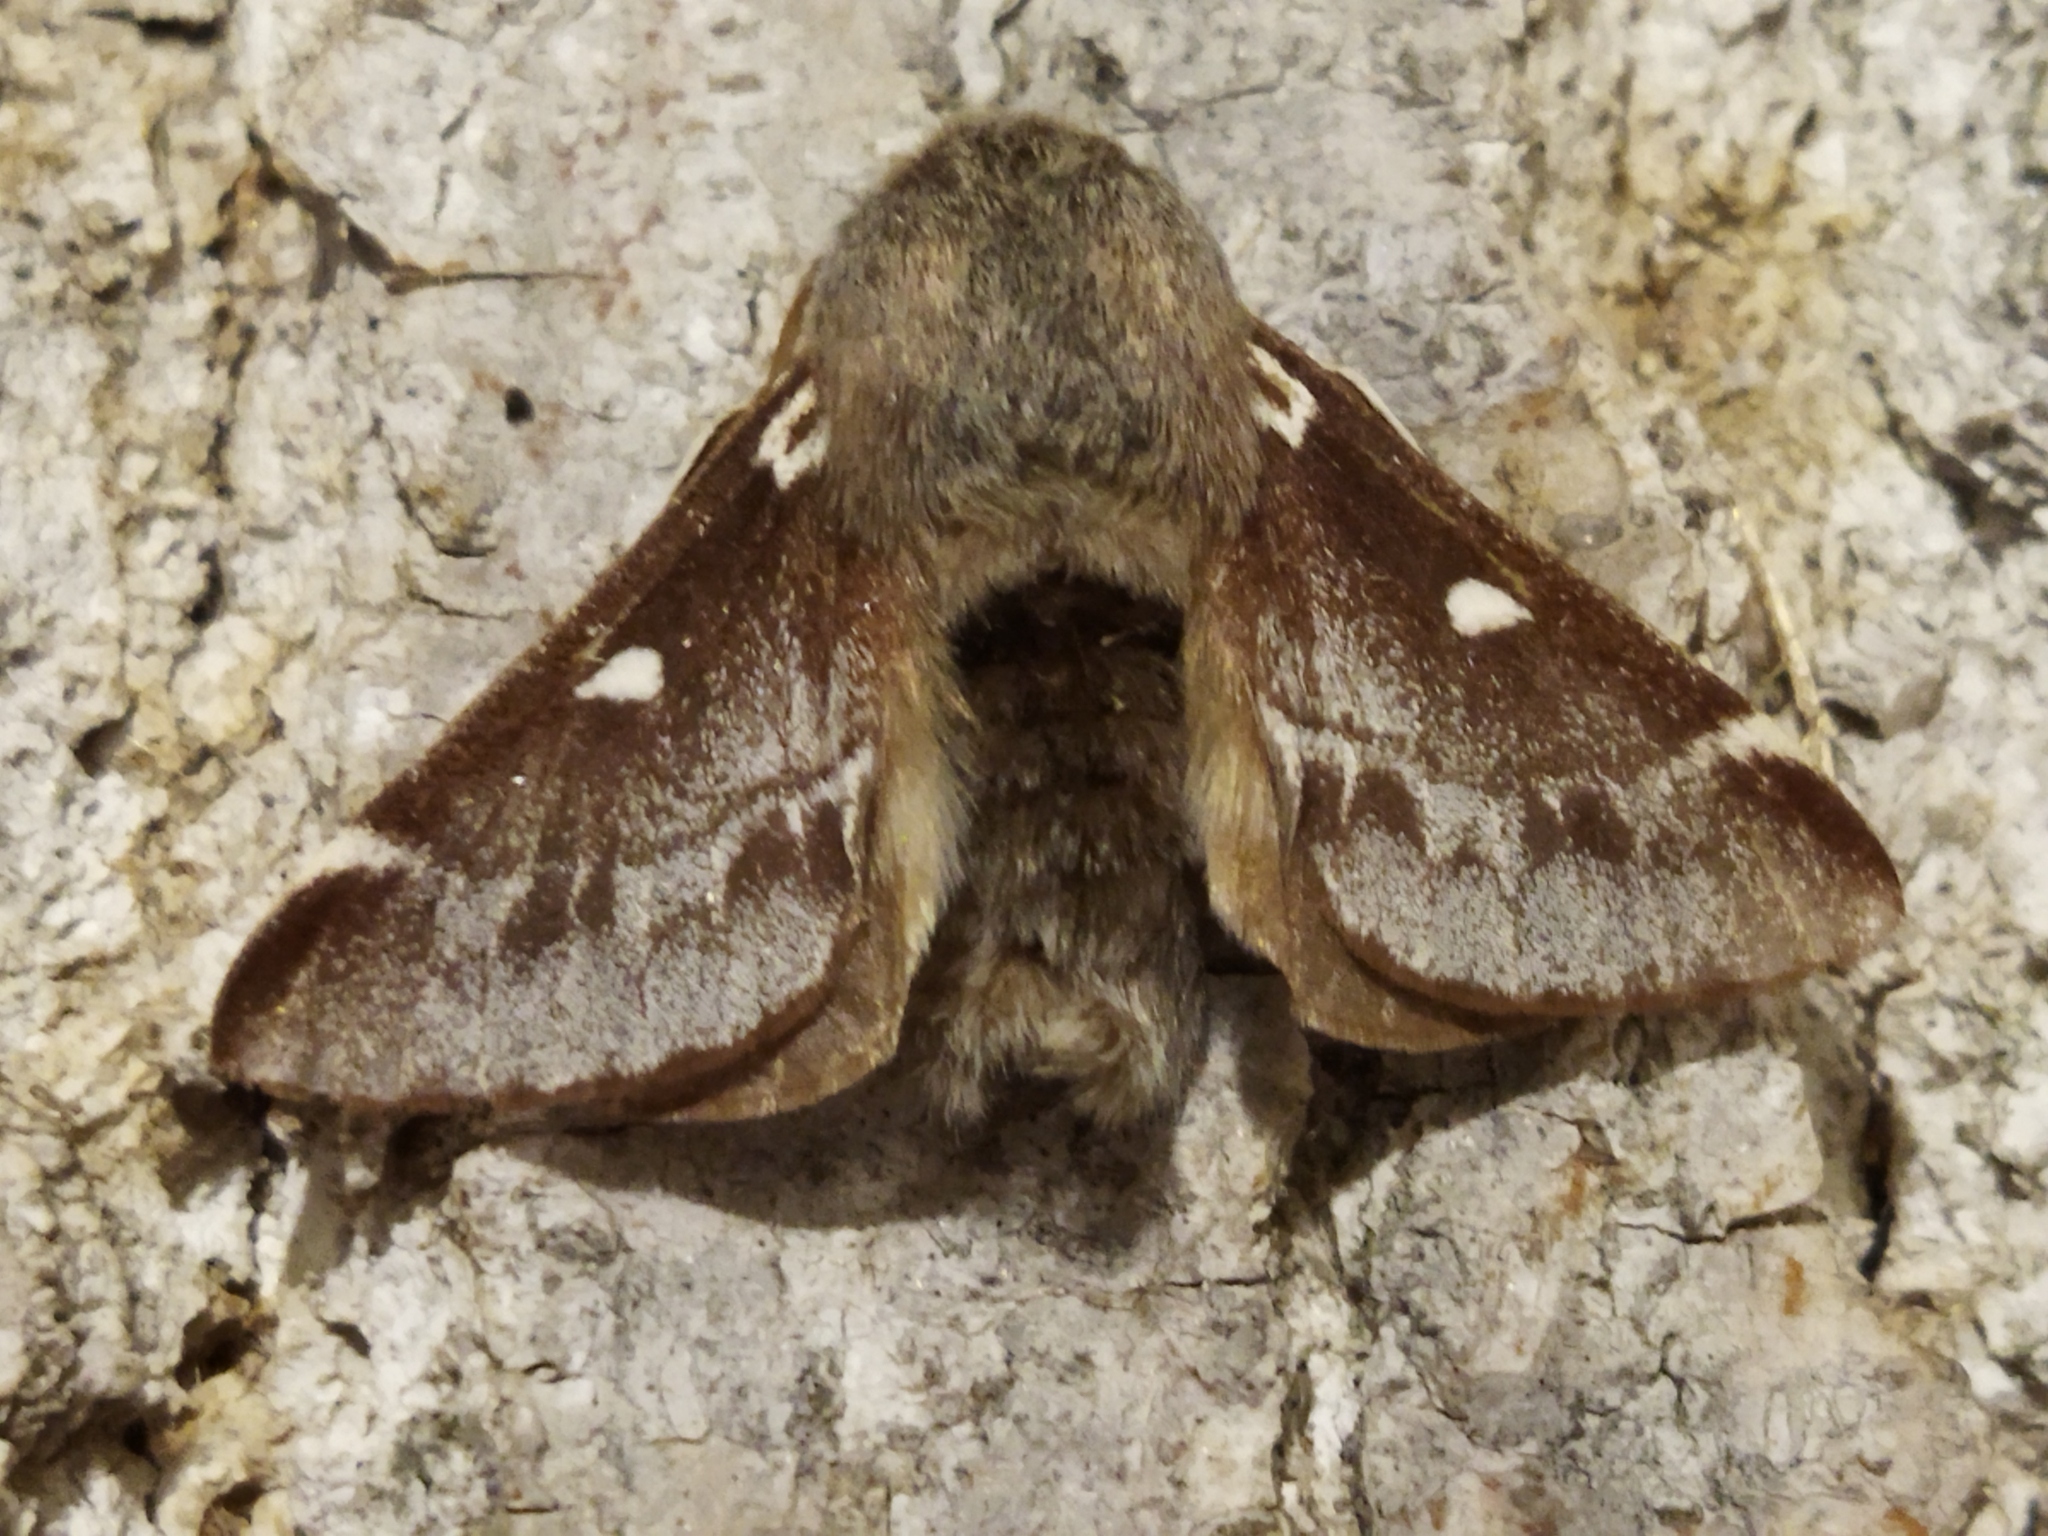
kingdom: Animalia
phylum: Arthropoda
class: Insecta
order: Lepidoptera
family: Lasiocampidae
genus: Eriogaster
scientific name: Eriogaster lanestris
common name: Small eggar
